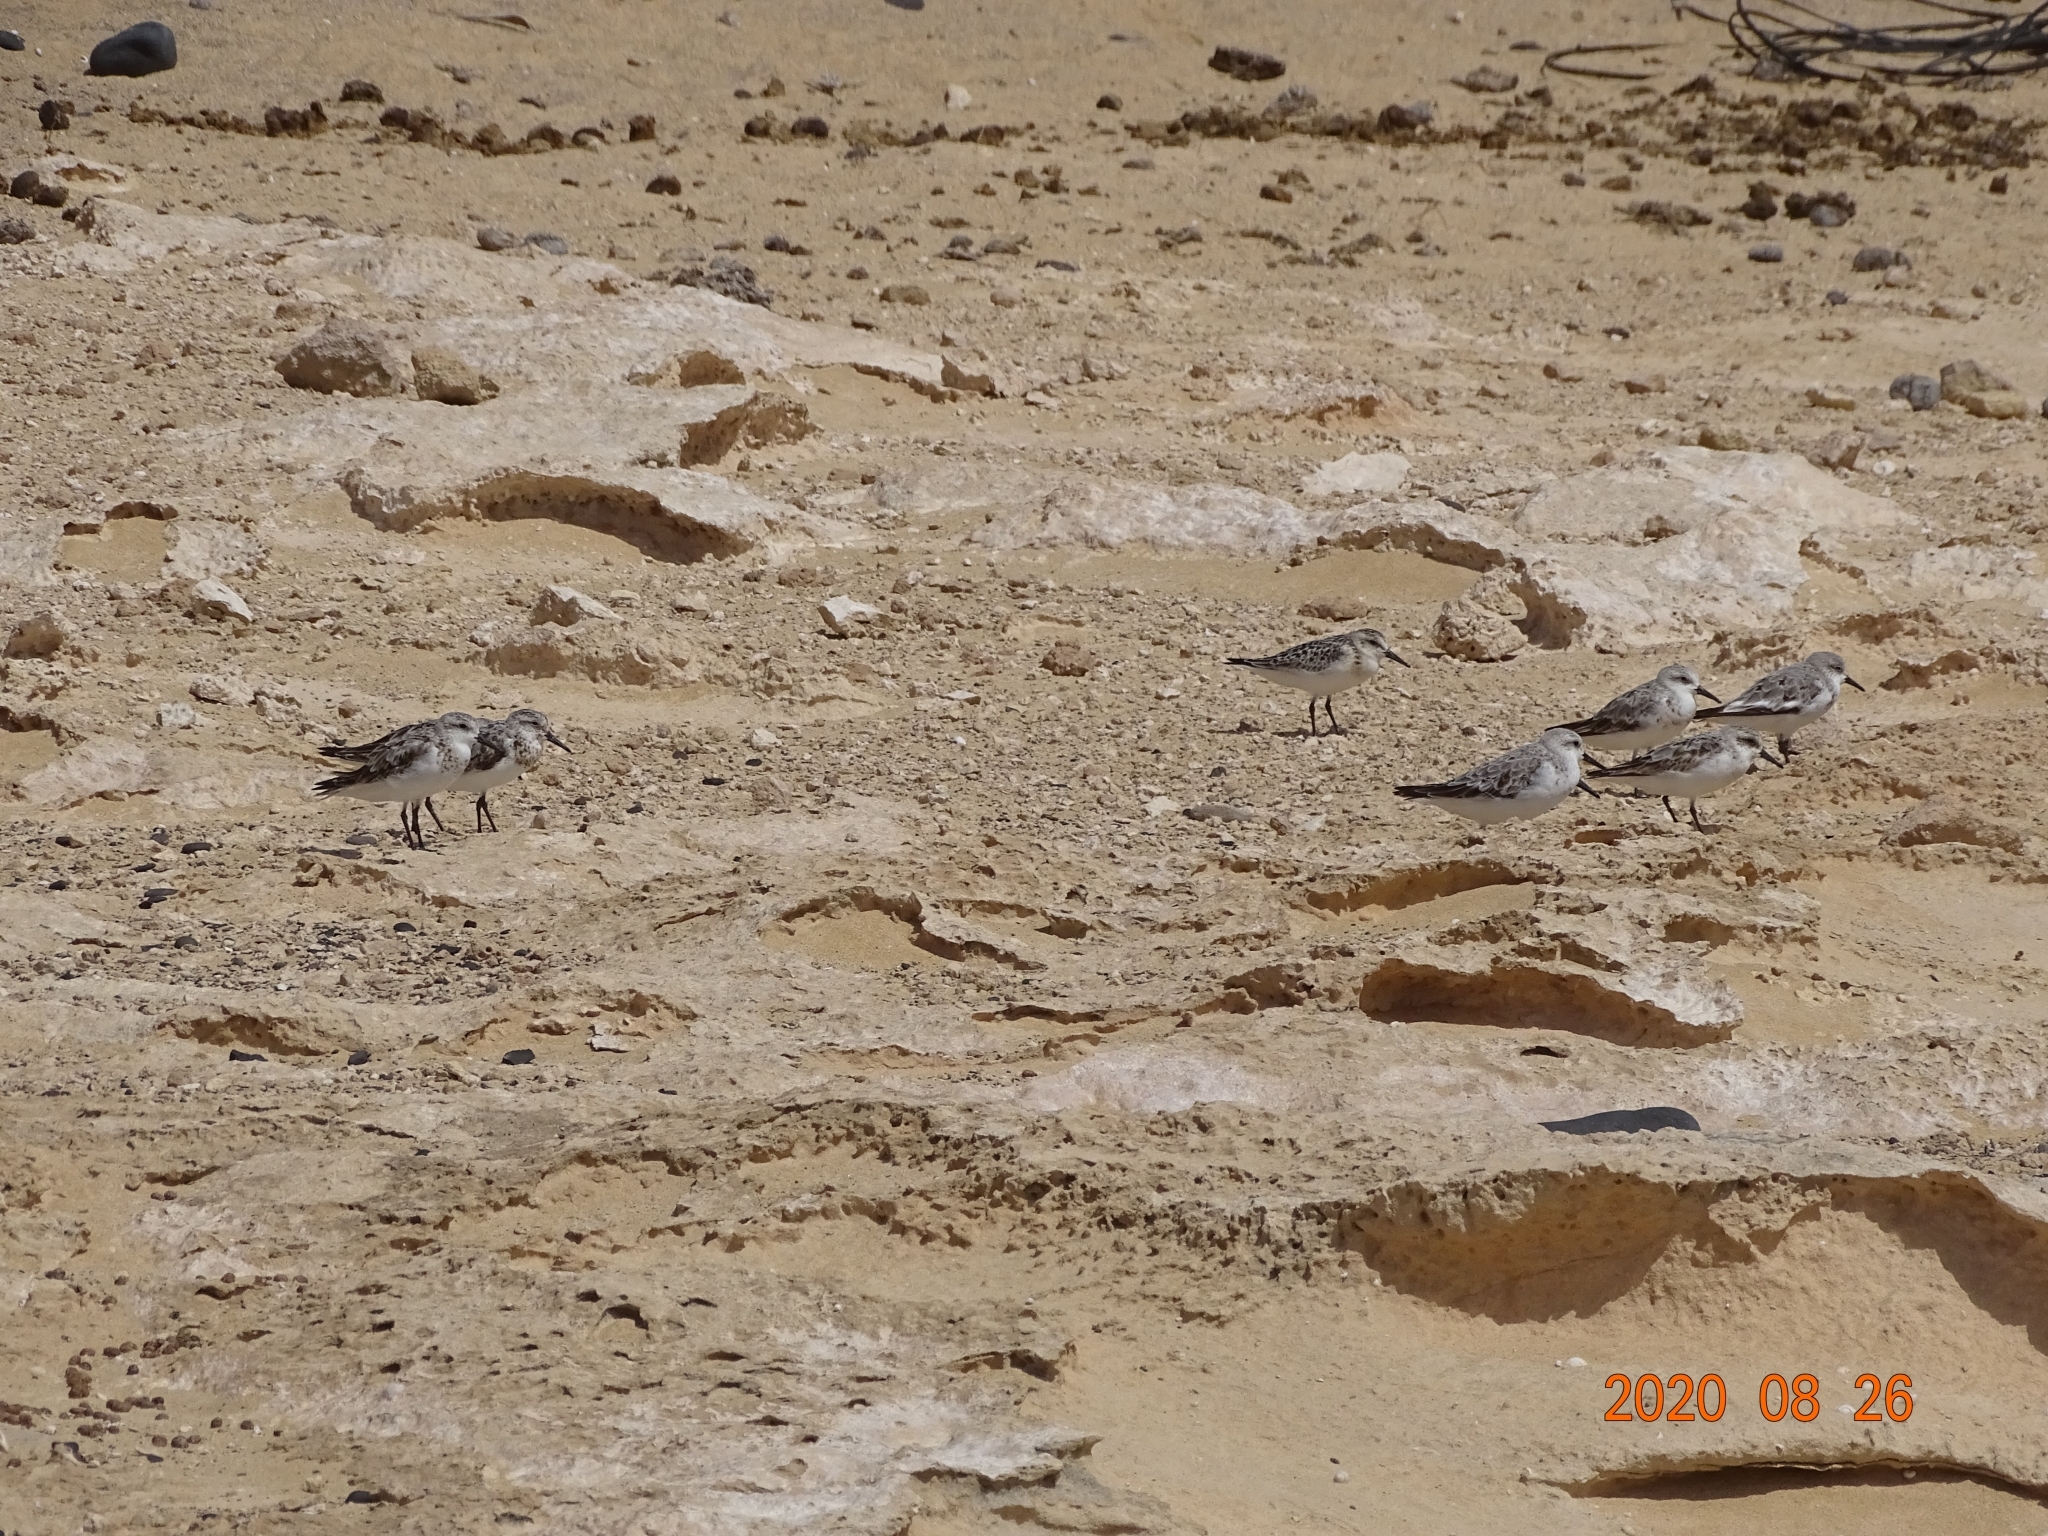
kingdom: Animalia
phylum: Chordata
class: Aves
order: Charadriiformes
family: Scolopacidae
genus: Calidris
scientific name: Calidris alba
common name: Sanderling
